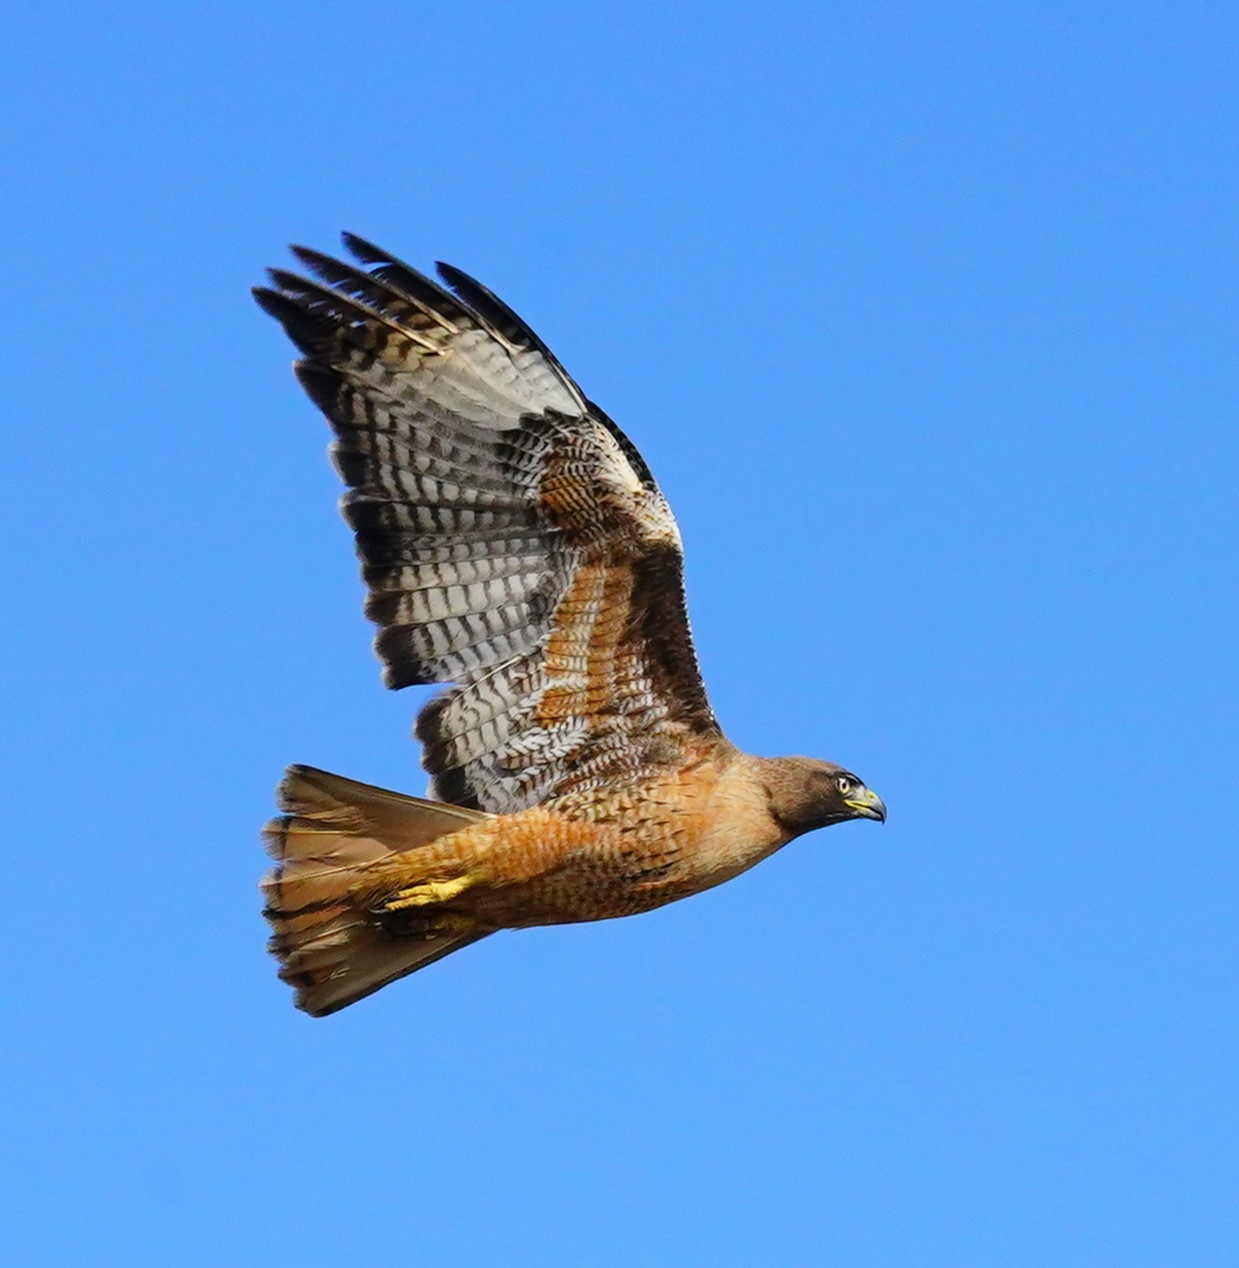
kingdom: Animalia
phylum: Chordata
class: Aves
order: Accipitriformes
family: Accipitridae
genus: Buteo
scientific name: Buteo jamaicensis
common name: Red-tailed hawk
